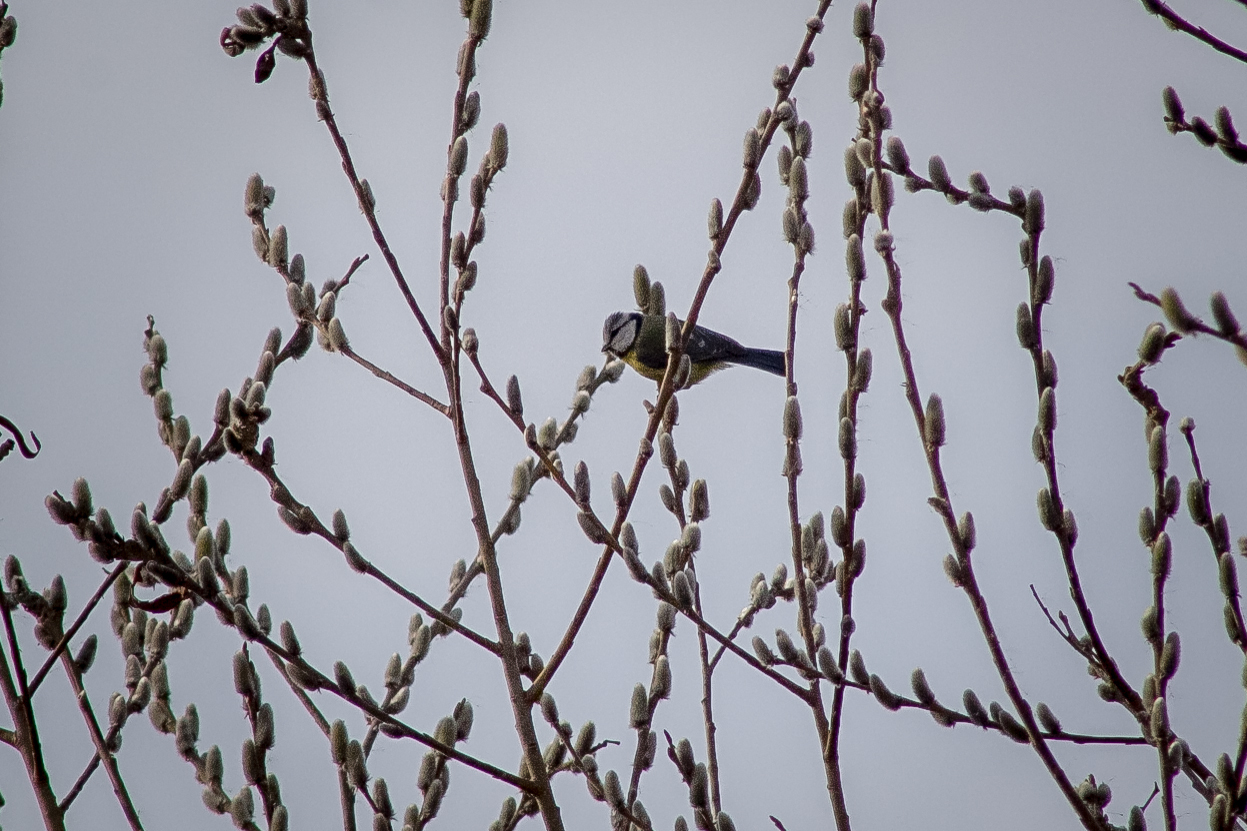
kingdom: Animalia
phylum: Chordata
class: Aves
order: Passeriformes
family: Paridae
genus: Cyanistes
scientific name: Cyanistes caeruleus
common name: Eurasian blue tit
